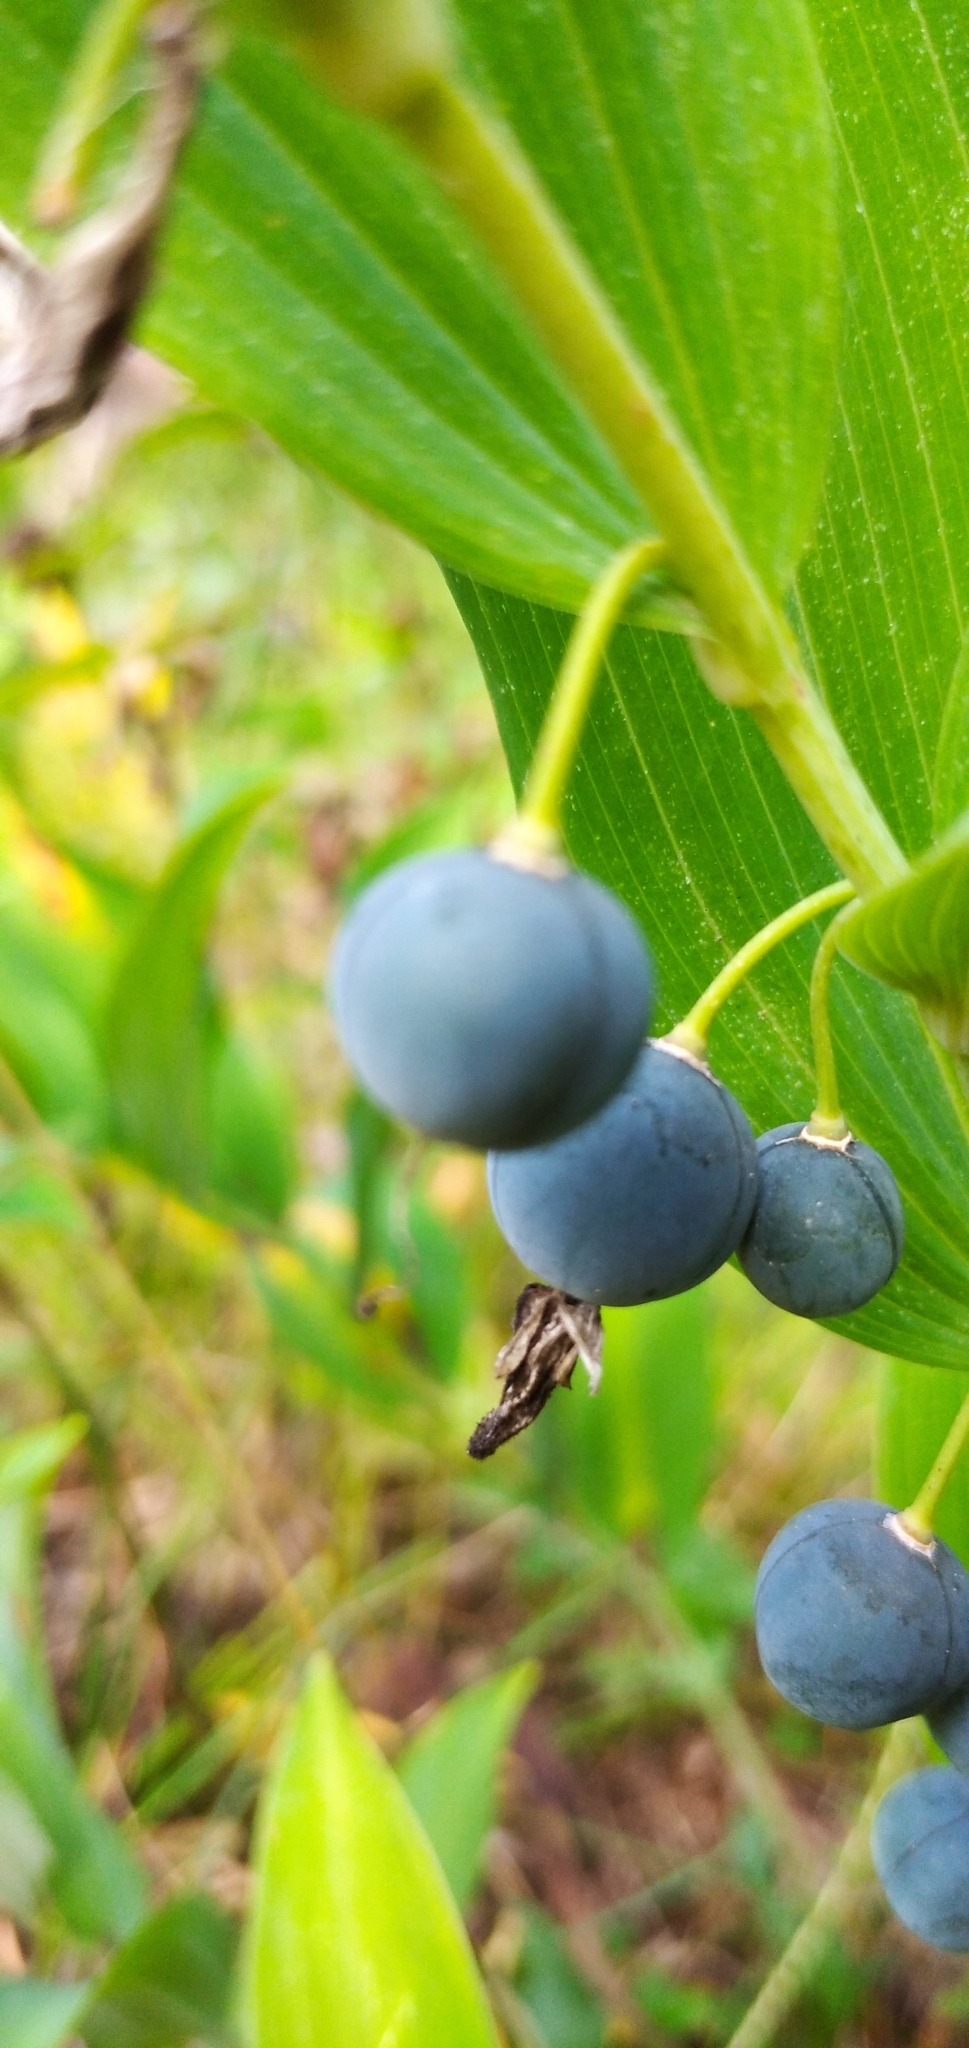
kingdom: Plantae
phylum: Tracheophyta
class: Liliopsida
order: Asparagales
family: Asparagaceae
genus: Polygonatum
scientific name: Polygonatum odoratum
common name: Angular solomon's-seal
